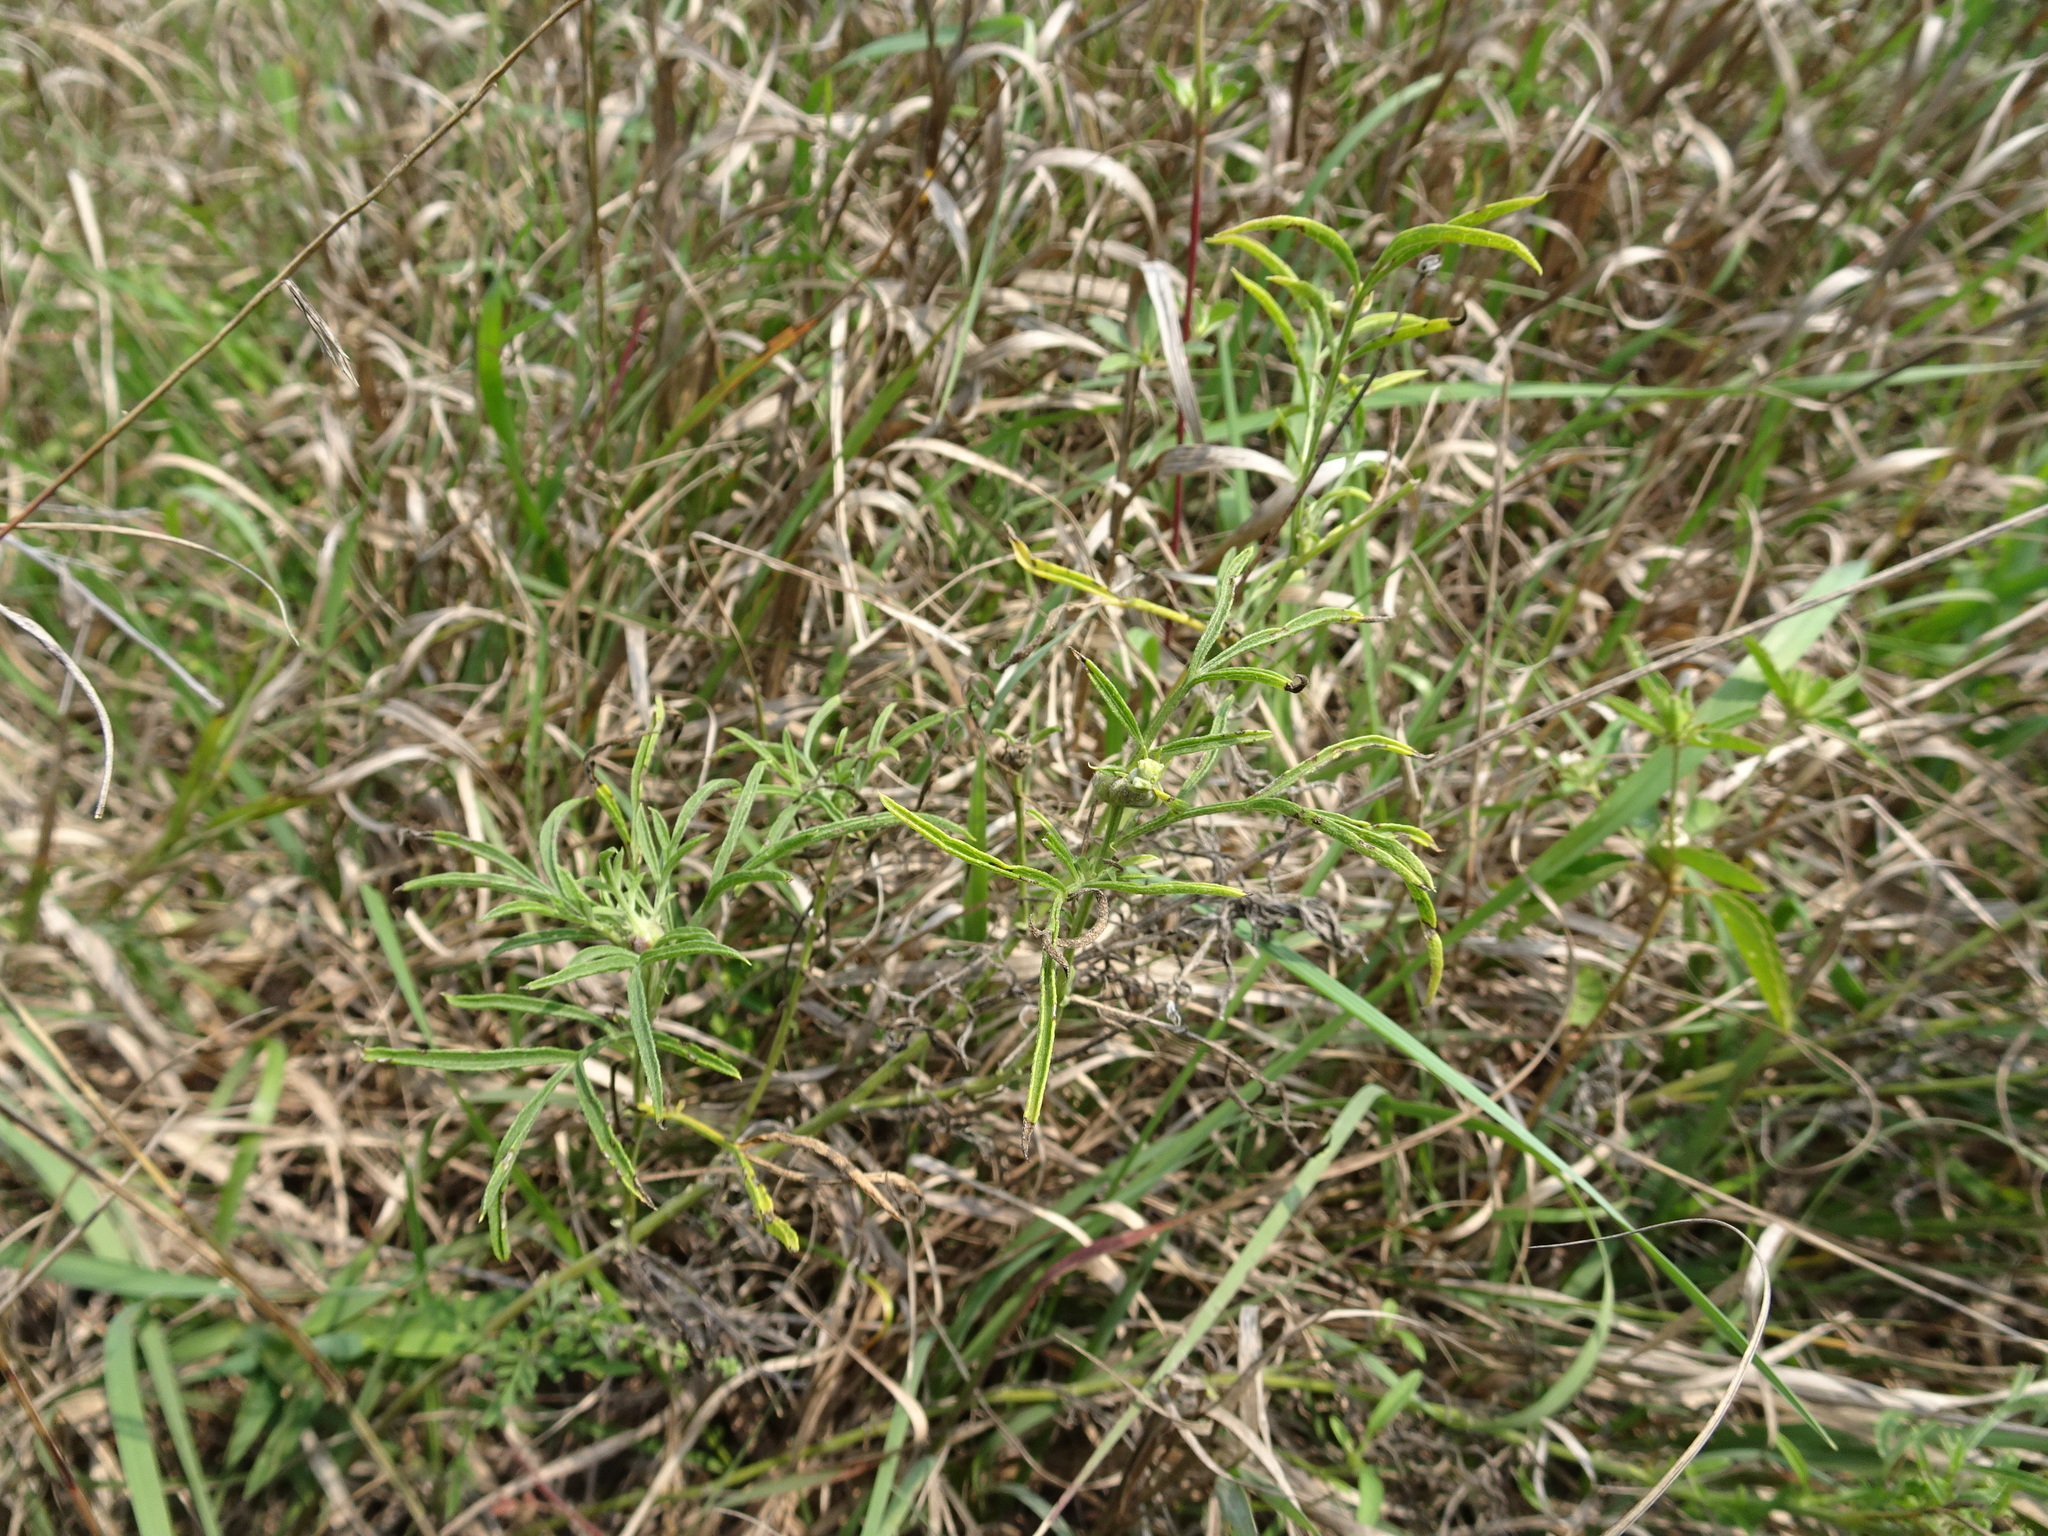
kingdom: Plantae
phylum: Tracheophyta
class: Magnoliopsida
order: Asterales
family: Asteraceae
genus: Ratibida
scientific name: Ratibida columnifera
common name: Prairie coneflower
